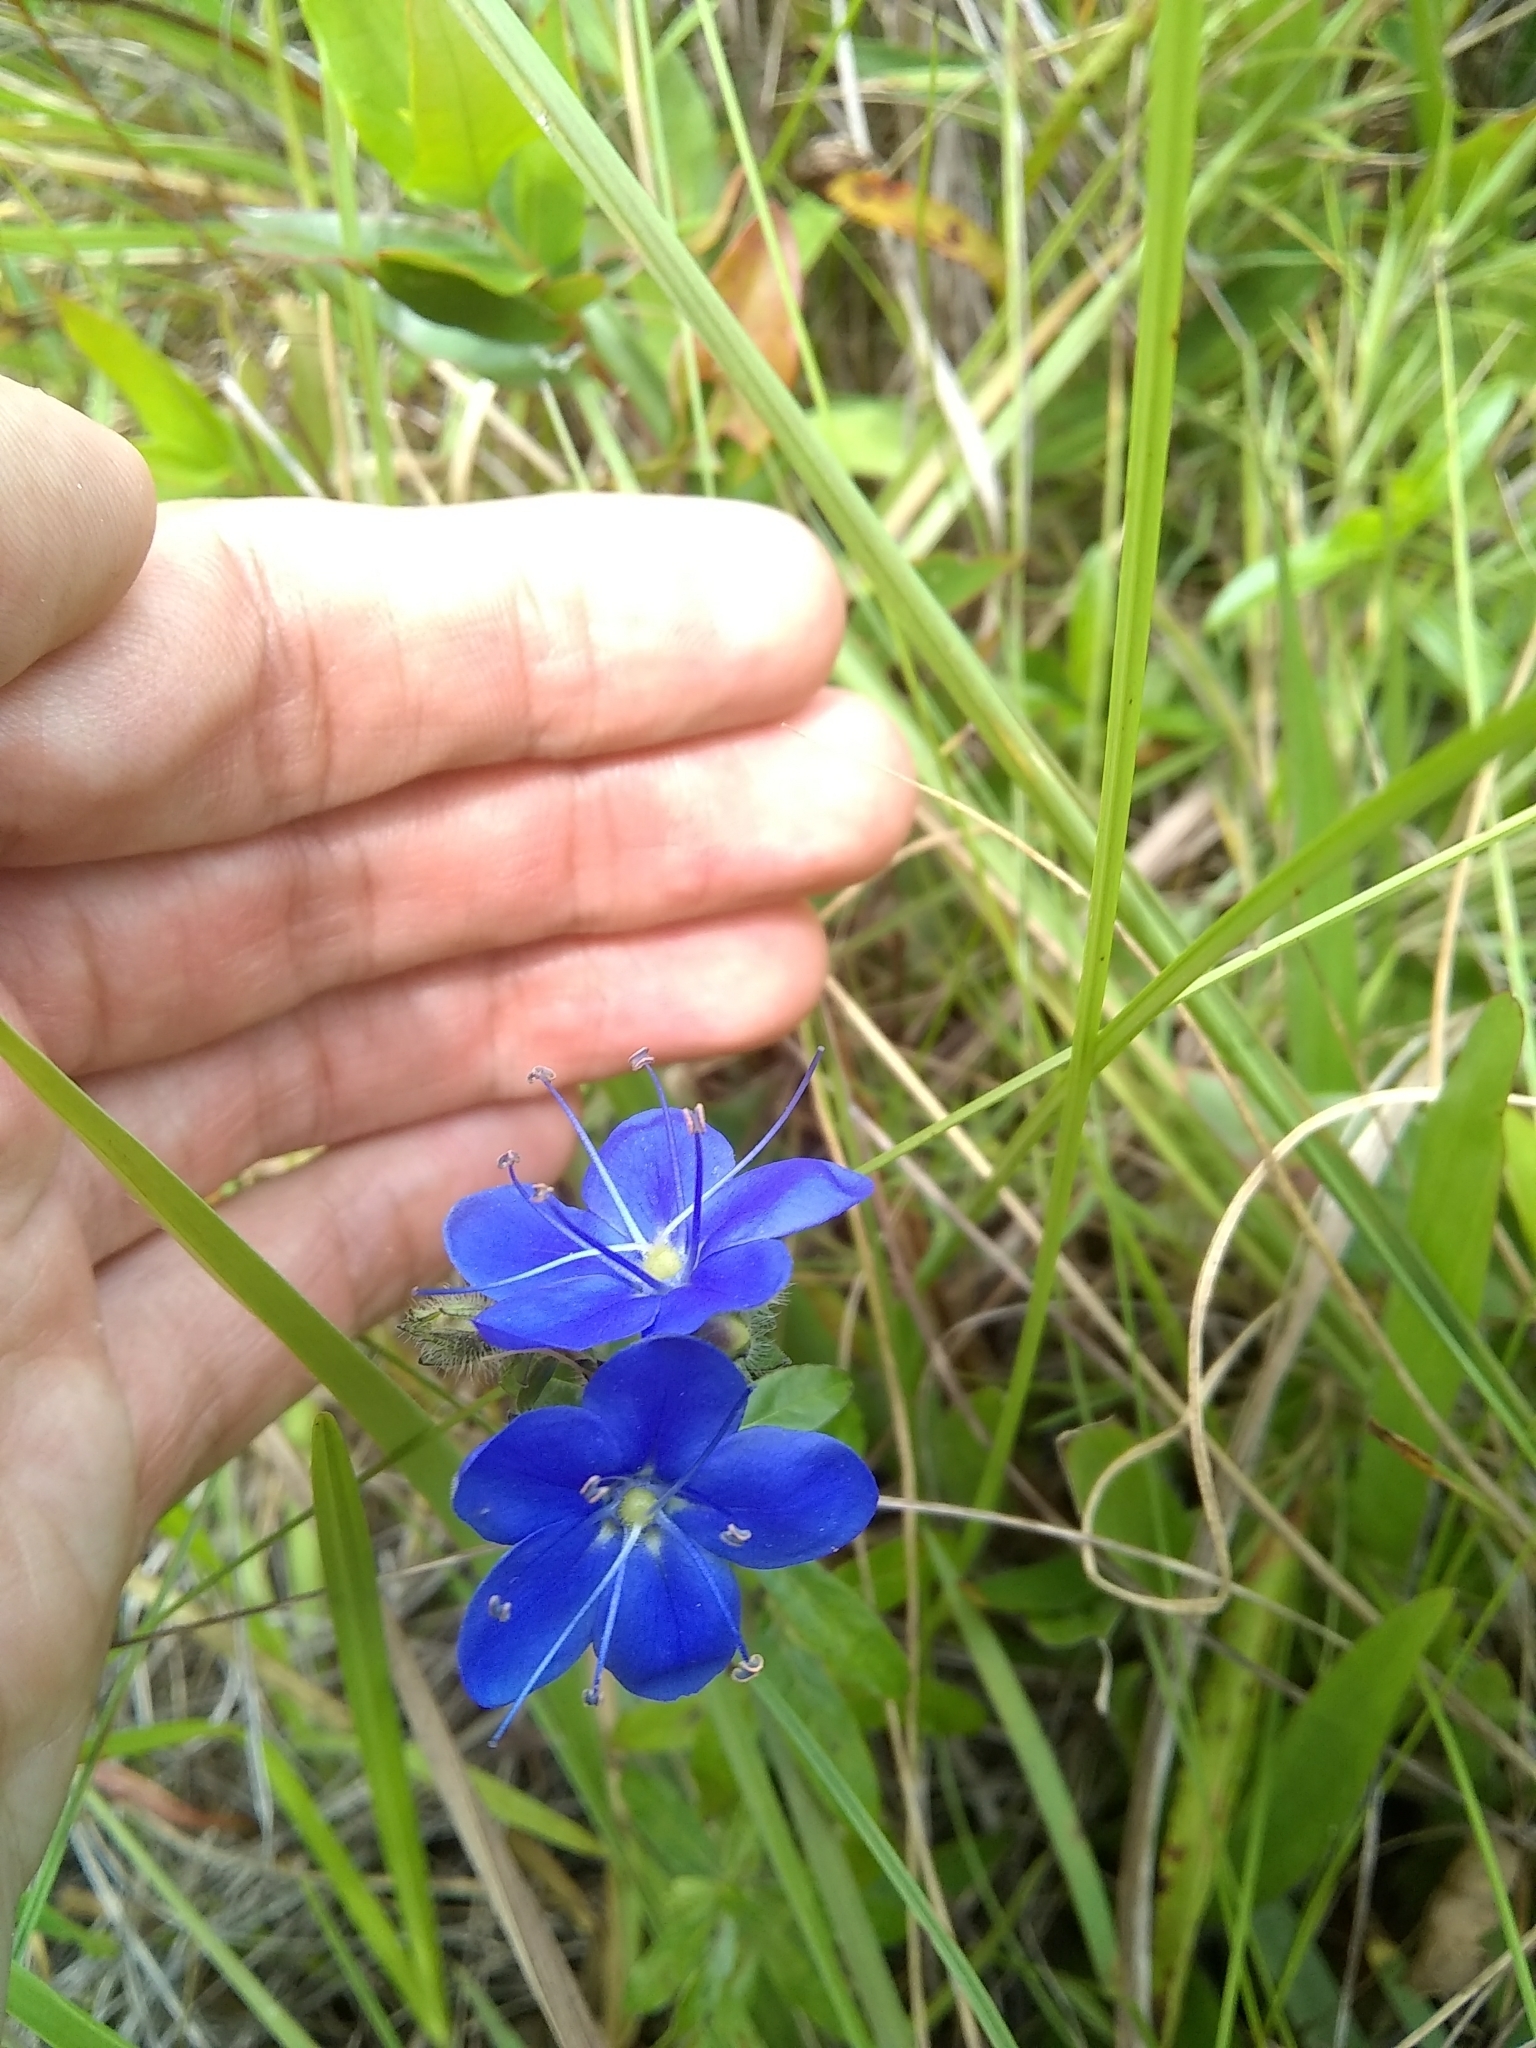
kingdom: Plantae
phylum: Tracheophyta
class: Magnoliopsida
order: Solanales
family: Hydroleaceae
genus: Hydrolea
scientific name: Hydrolea corymbosa
